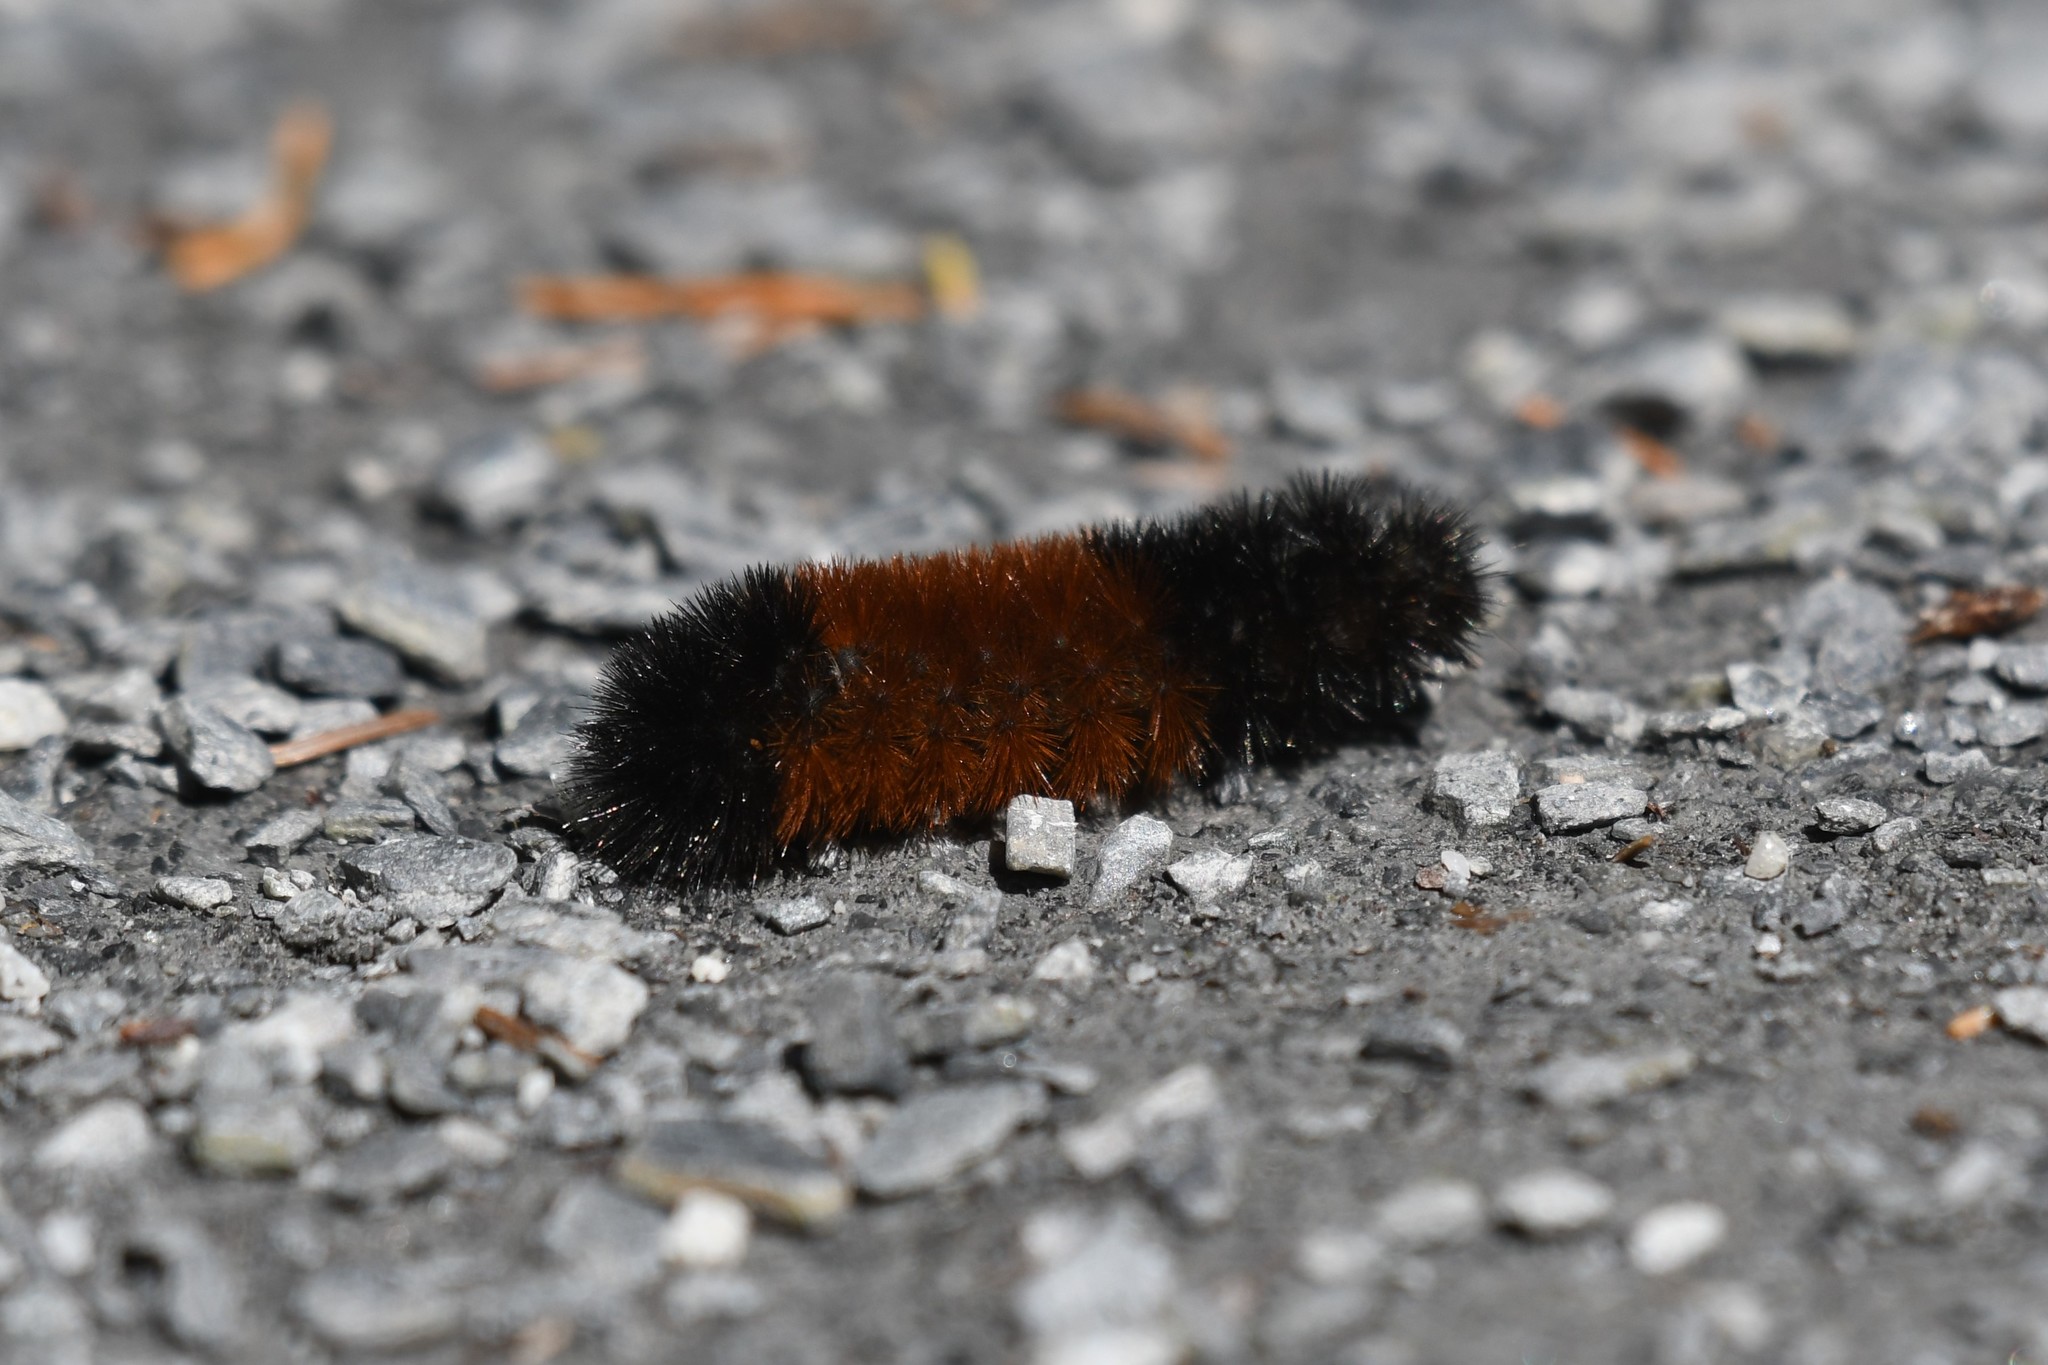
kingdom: Animalia
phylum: Arthropoda
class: Insecta
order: Lepidoptera
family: Erebidae
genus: Pyrrharctia
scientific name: Pyrrharctia isabella
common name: Isabella tiger moth
